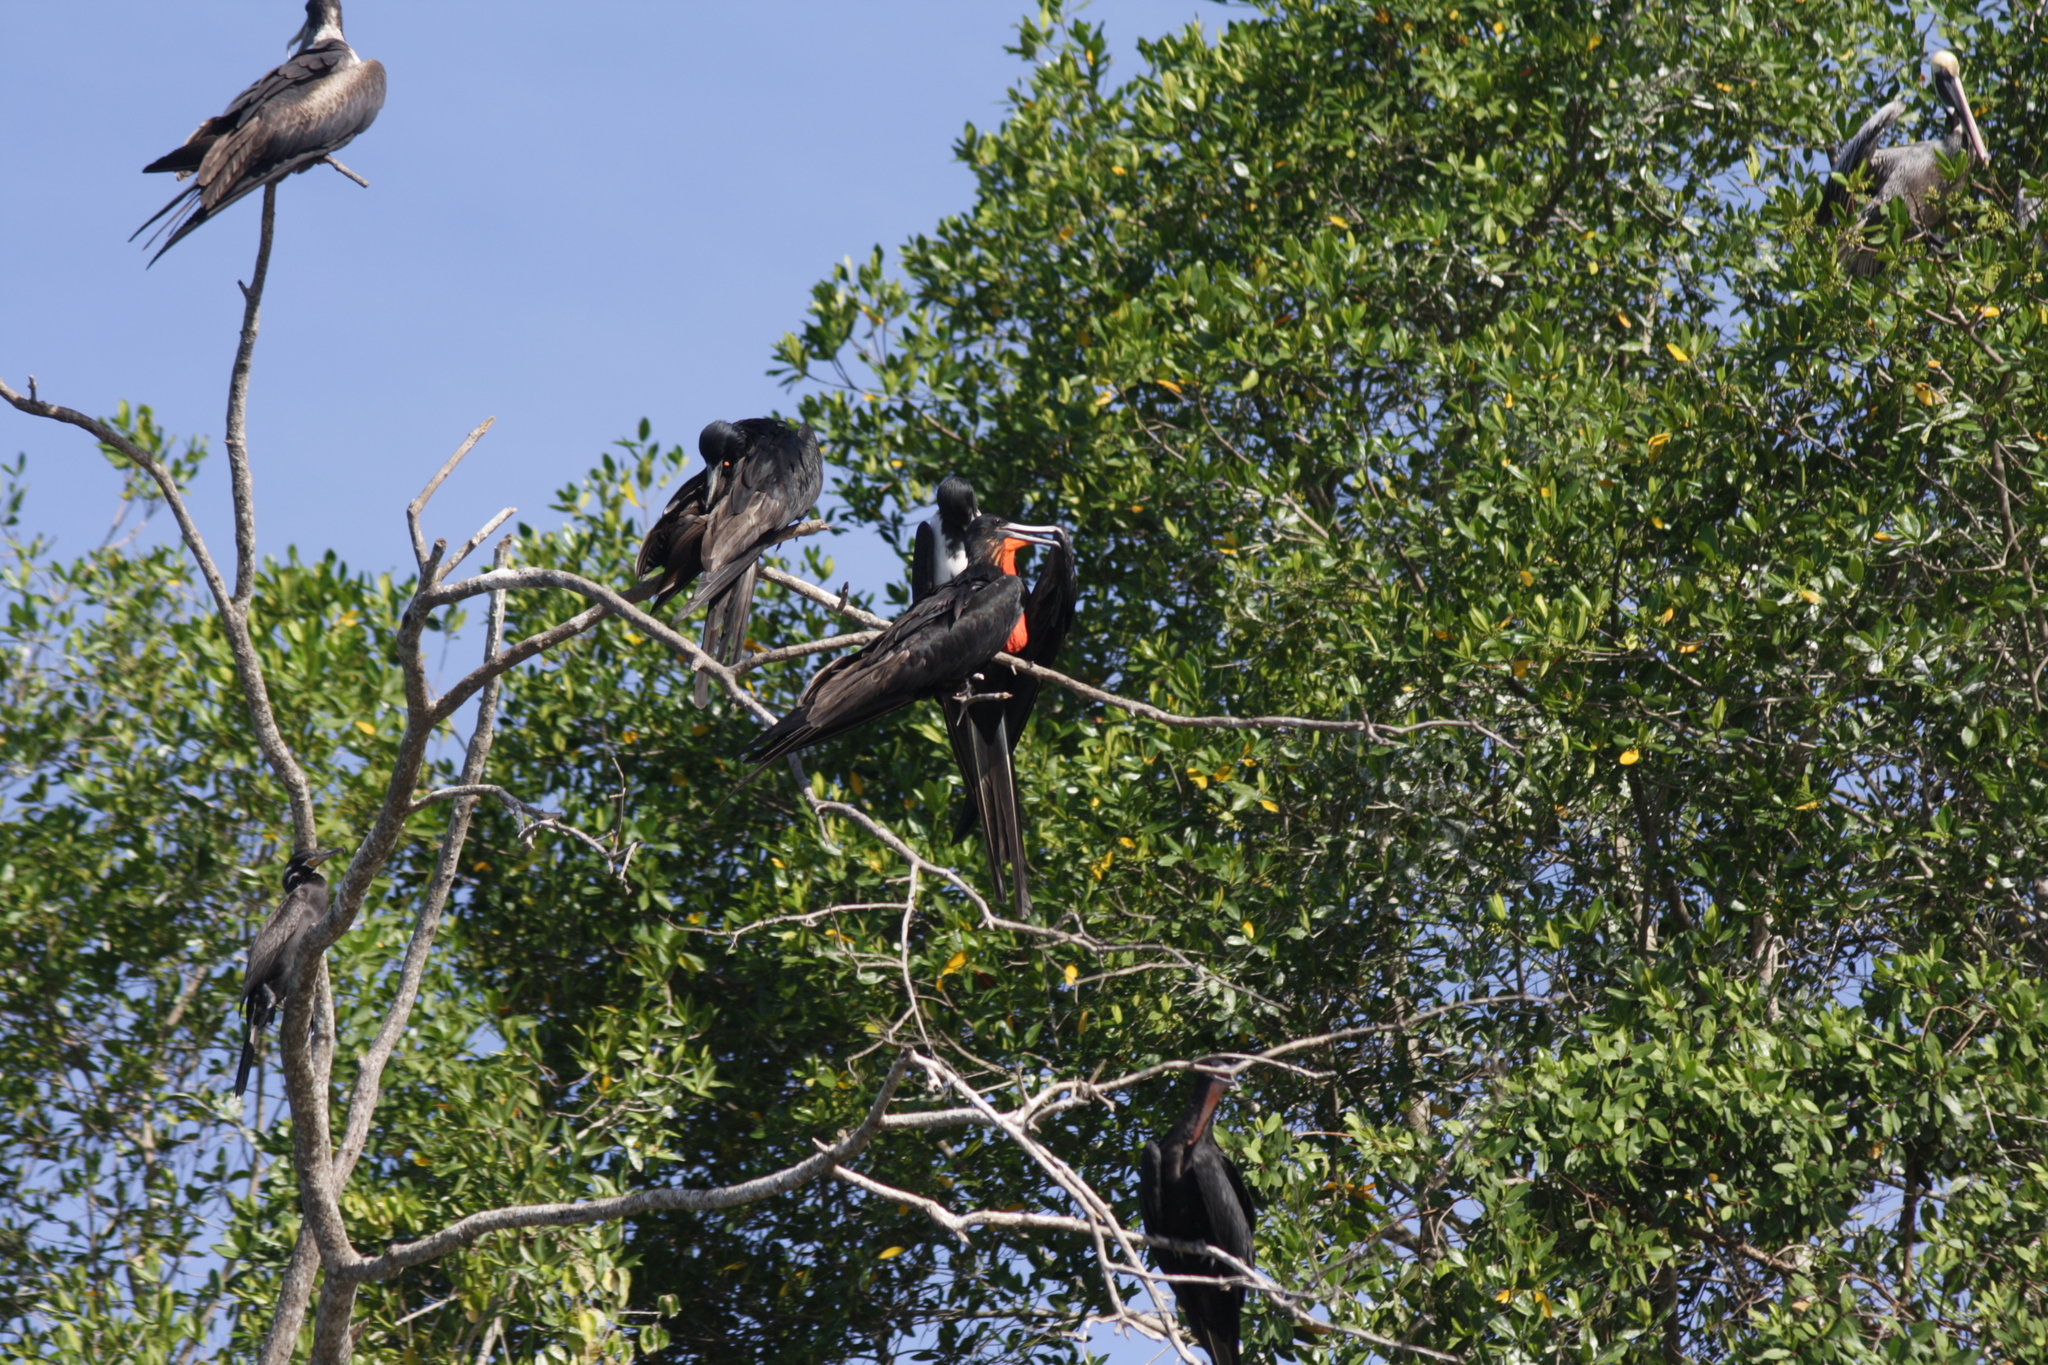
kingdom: Animalia
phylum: Chordata
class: Aves
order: Suliformes
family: Fregatidae
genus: Fregata
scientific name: Fregata magnificens
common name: Magnificent frigatebird
